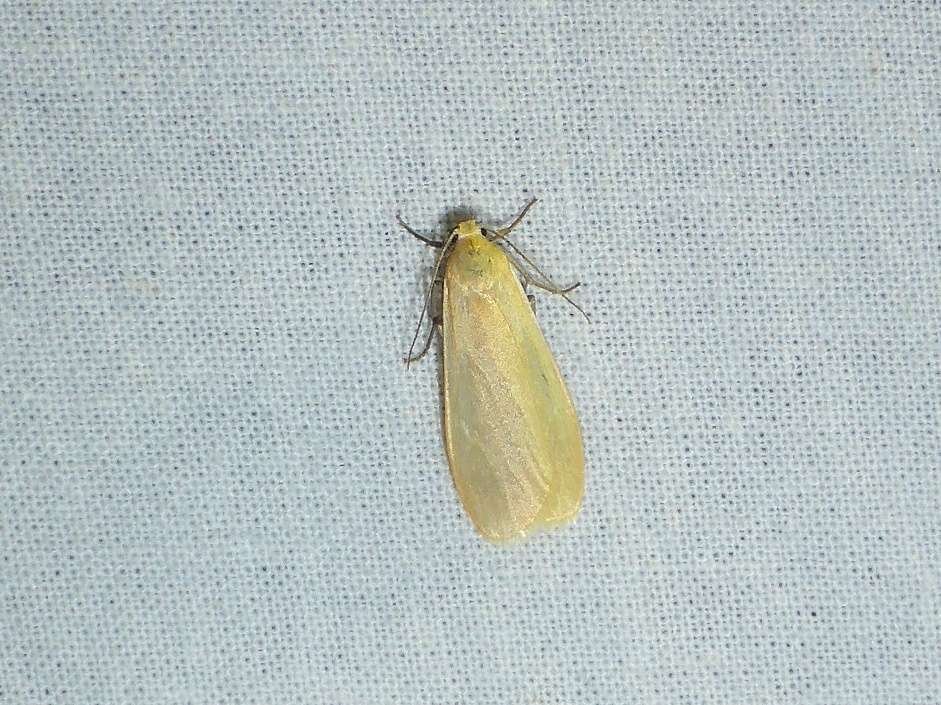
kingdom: Animalia
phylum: Arthropoda
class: Insecta
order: Lepidoptera
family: Erebidae
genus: Wittia
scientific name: Wittia sororcula
